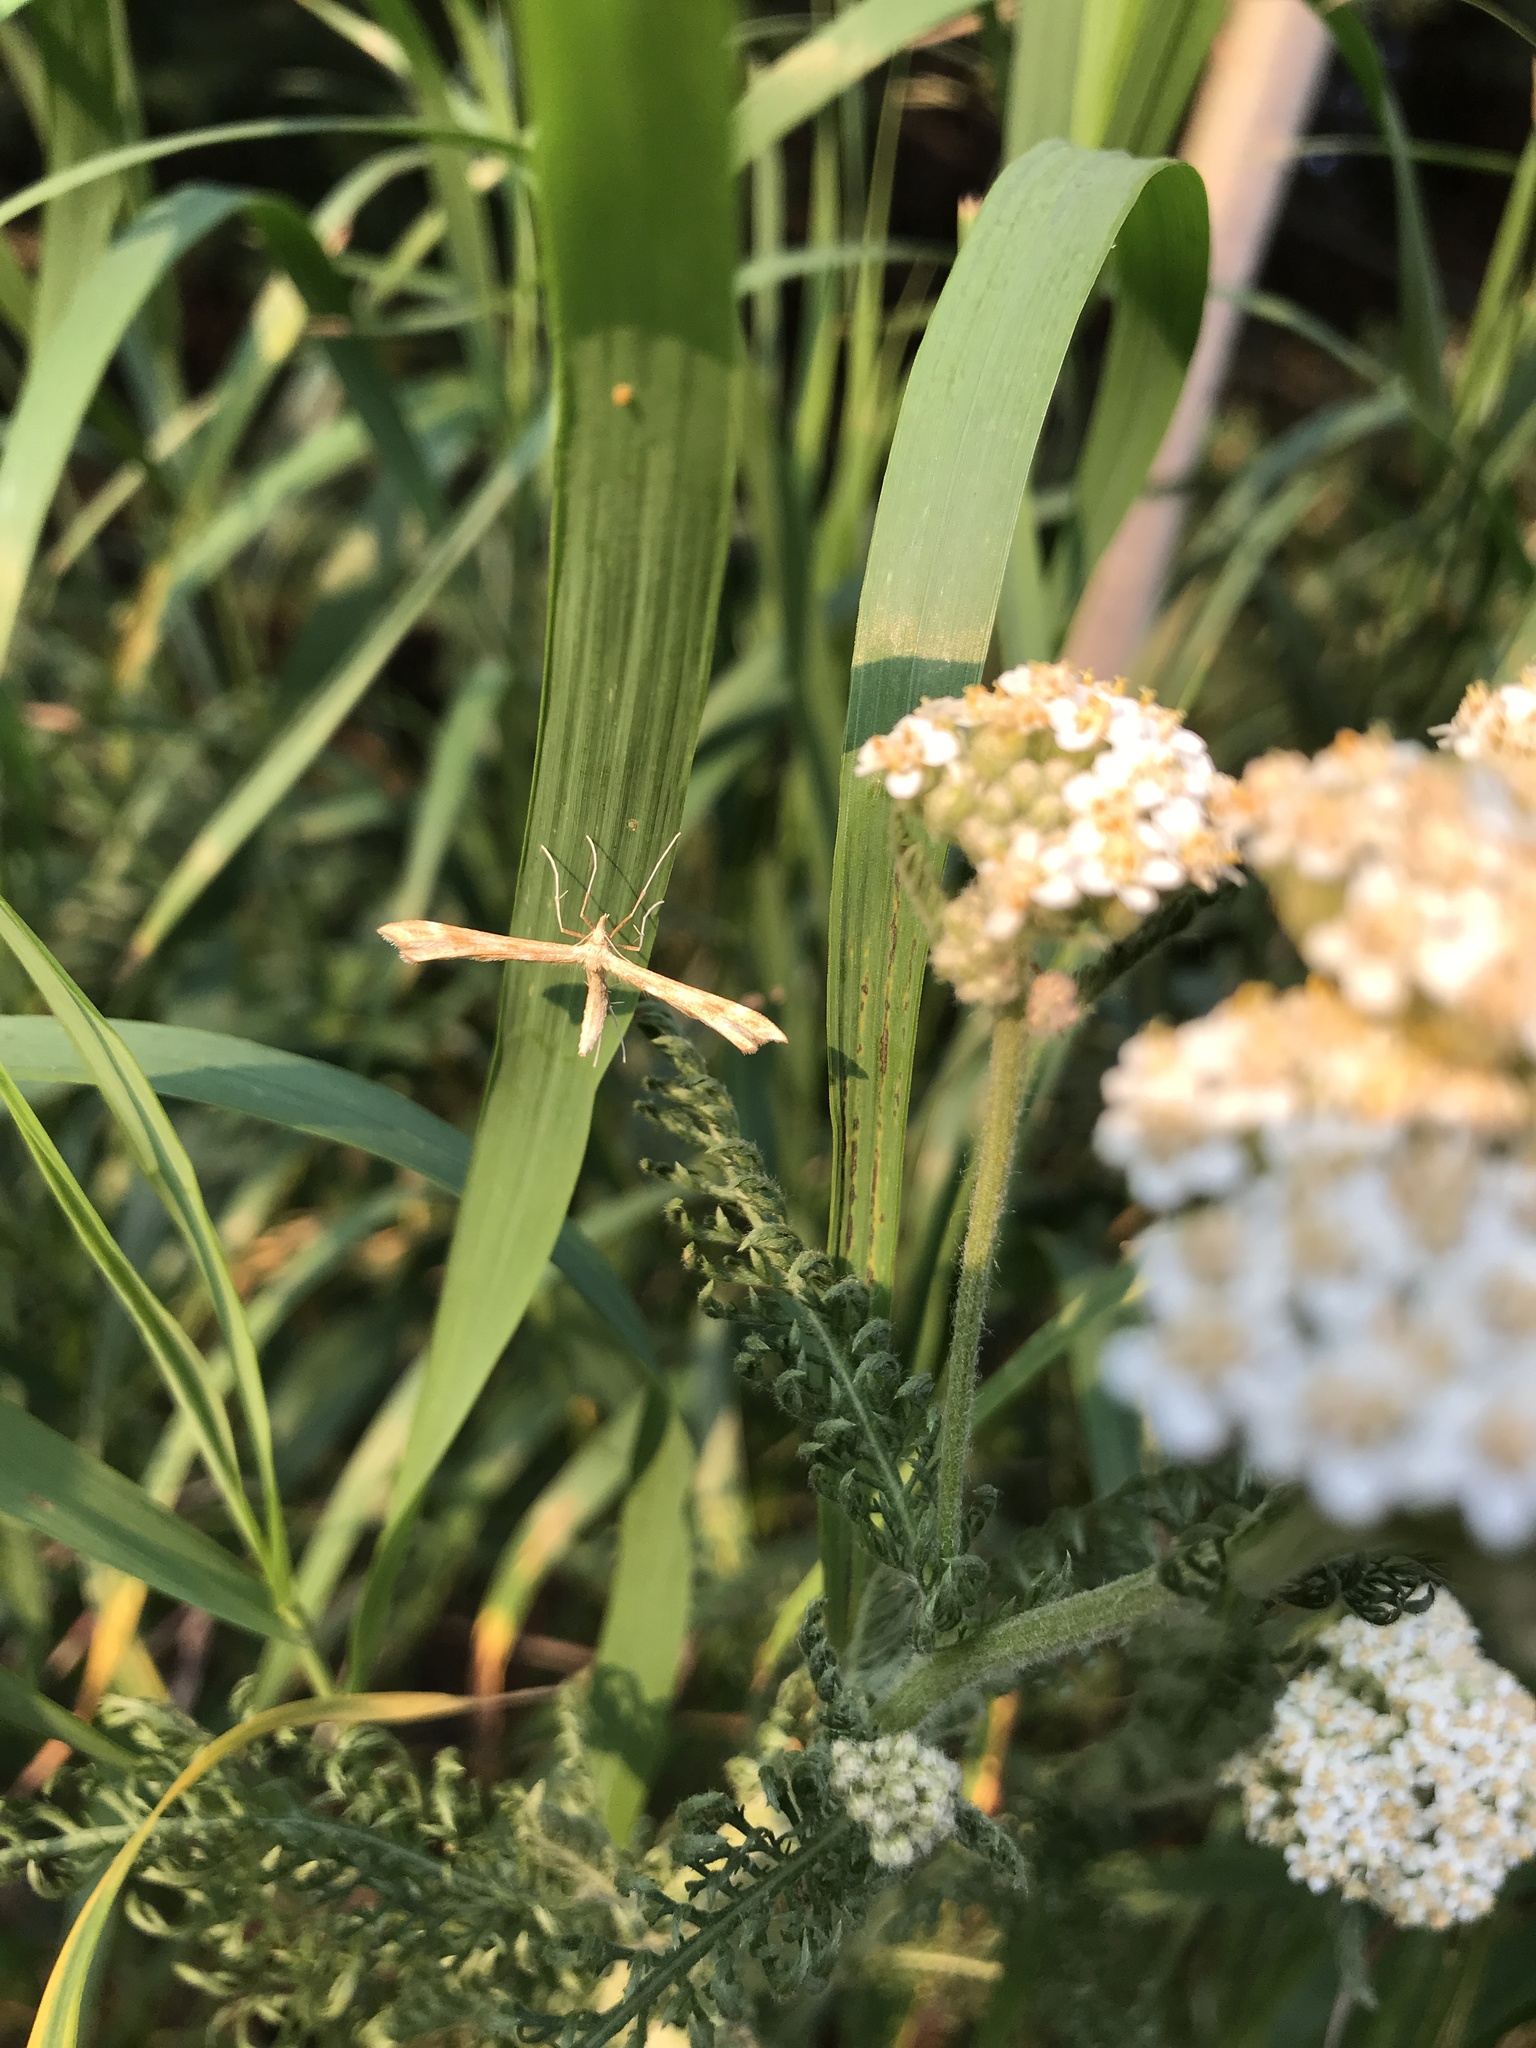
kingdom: Animalia
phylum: Arthropoda
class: Insecta
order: Lepidoptera
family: Pterophoridae
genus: Gillmeria
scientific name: Gillmeria pallidactyla
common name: Yarrow plume
